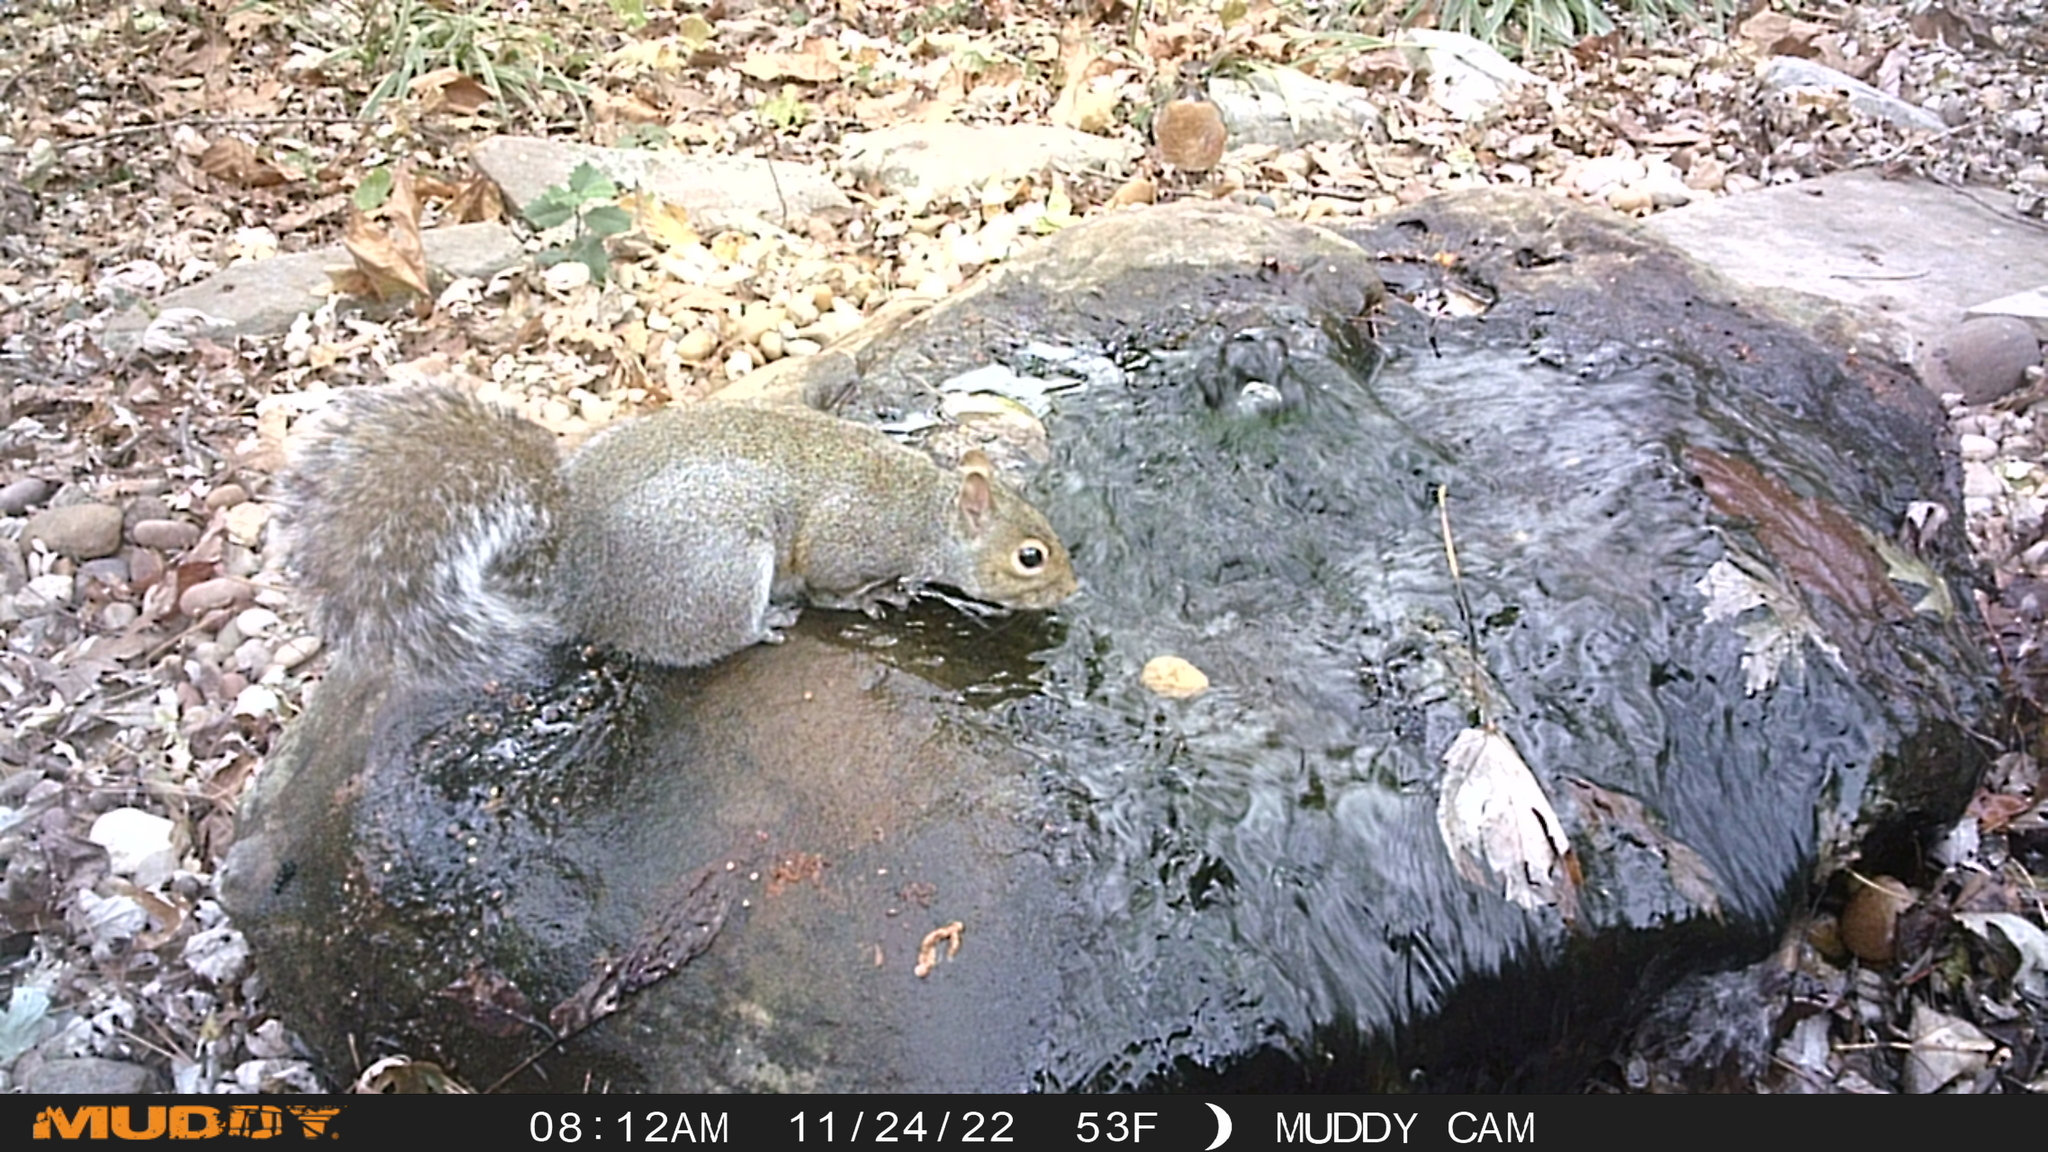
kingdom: Animalia
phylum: Chordata
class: Mammalia
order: Rodentia
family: Sciuridae
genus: Sciurus
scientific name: Sciurus carolinensis
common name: Eastern gray squirrel
